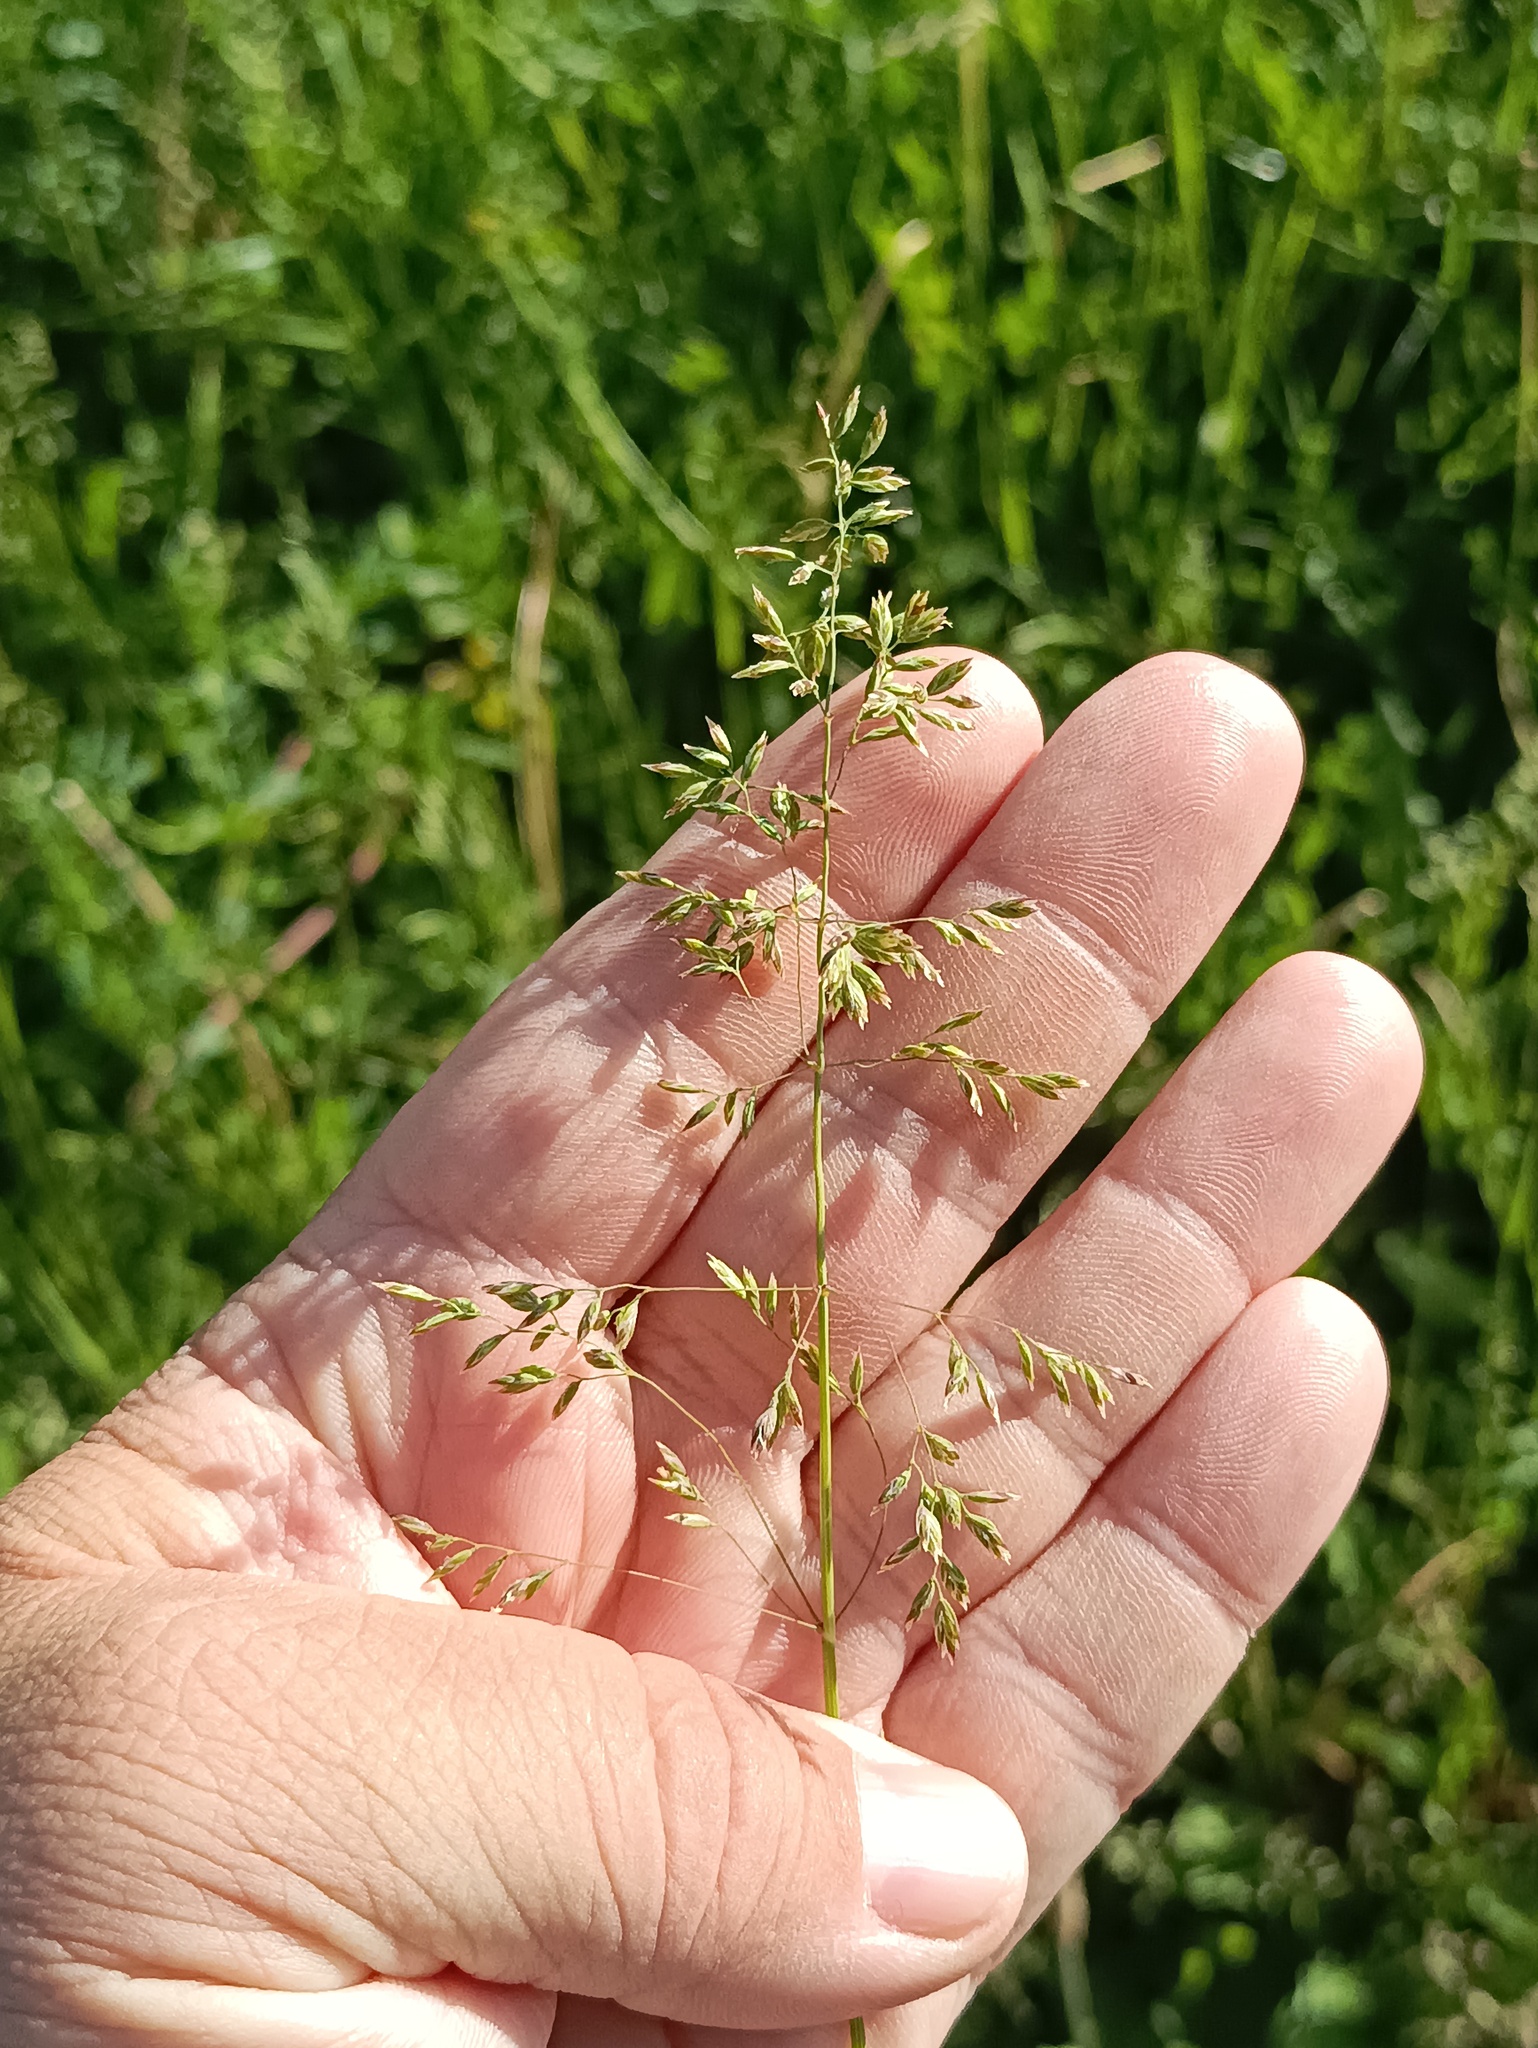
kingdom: Plantae
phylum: Tracheophyta
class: Liliopsida
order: Poales
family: Poaceae
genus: Poa
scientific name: Poa trivialis
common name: Rough bluegrass
